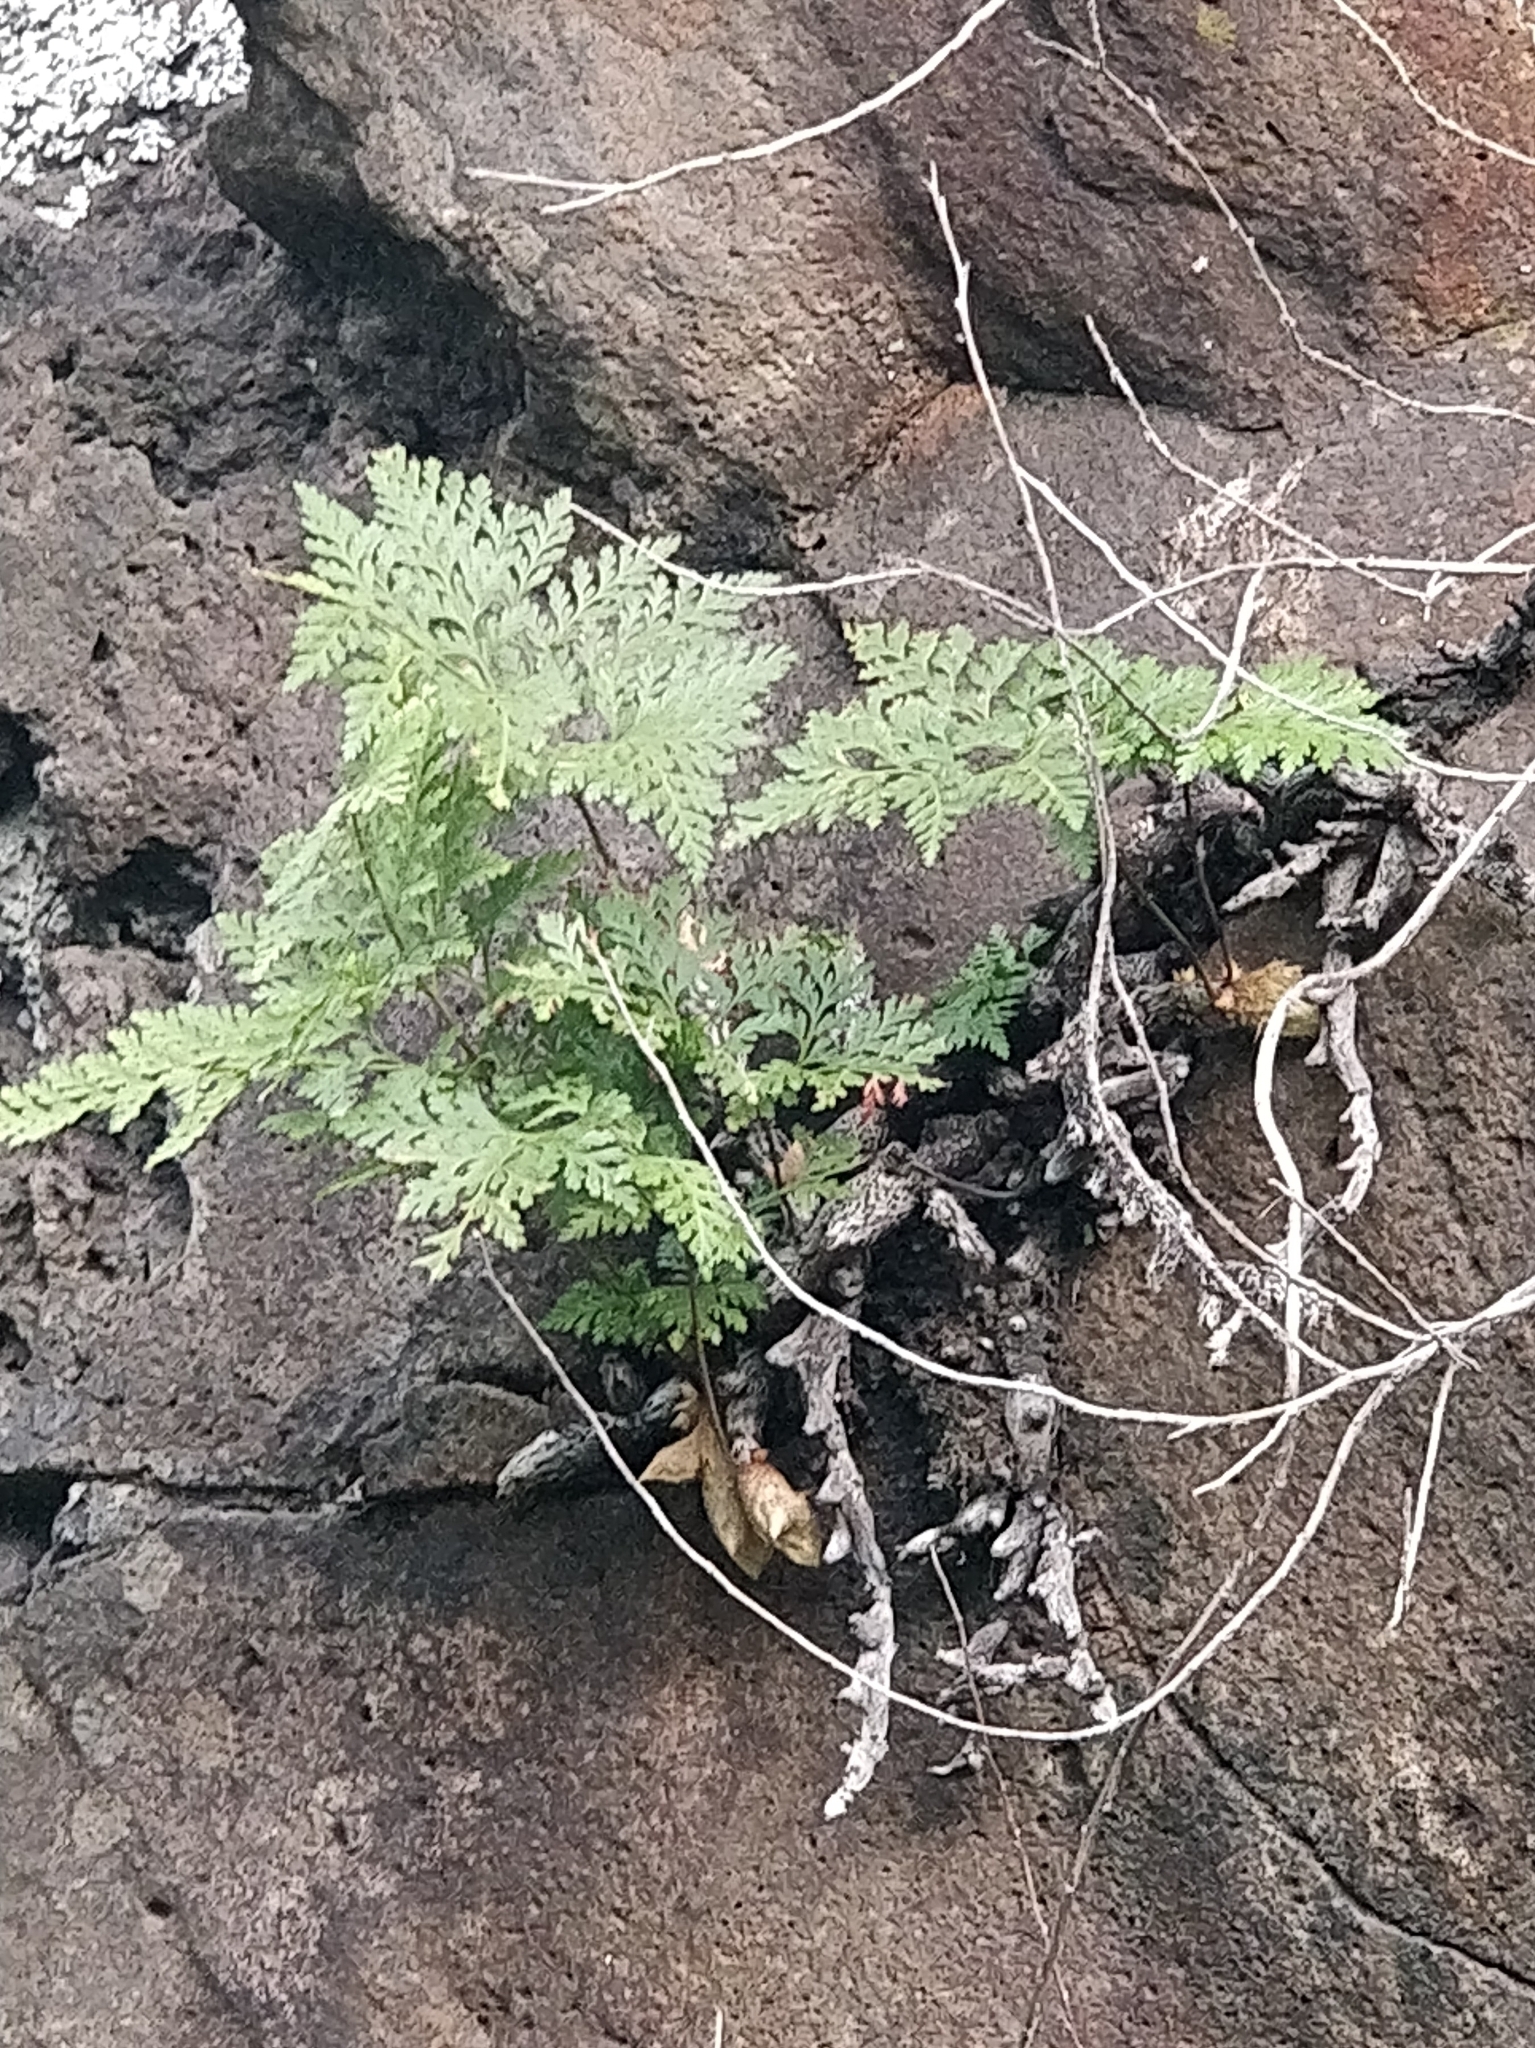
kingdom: Plantae
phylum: Tracheophyta
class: Polypodiopsida
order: Polypodiales
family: Davalliaceae
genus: Davallia
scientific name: Davallia canariensis
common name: Hare's-foot fern
